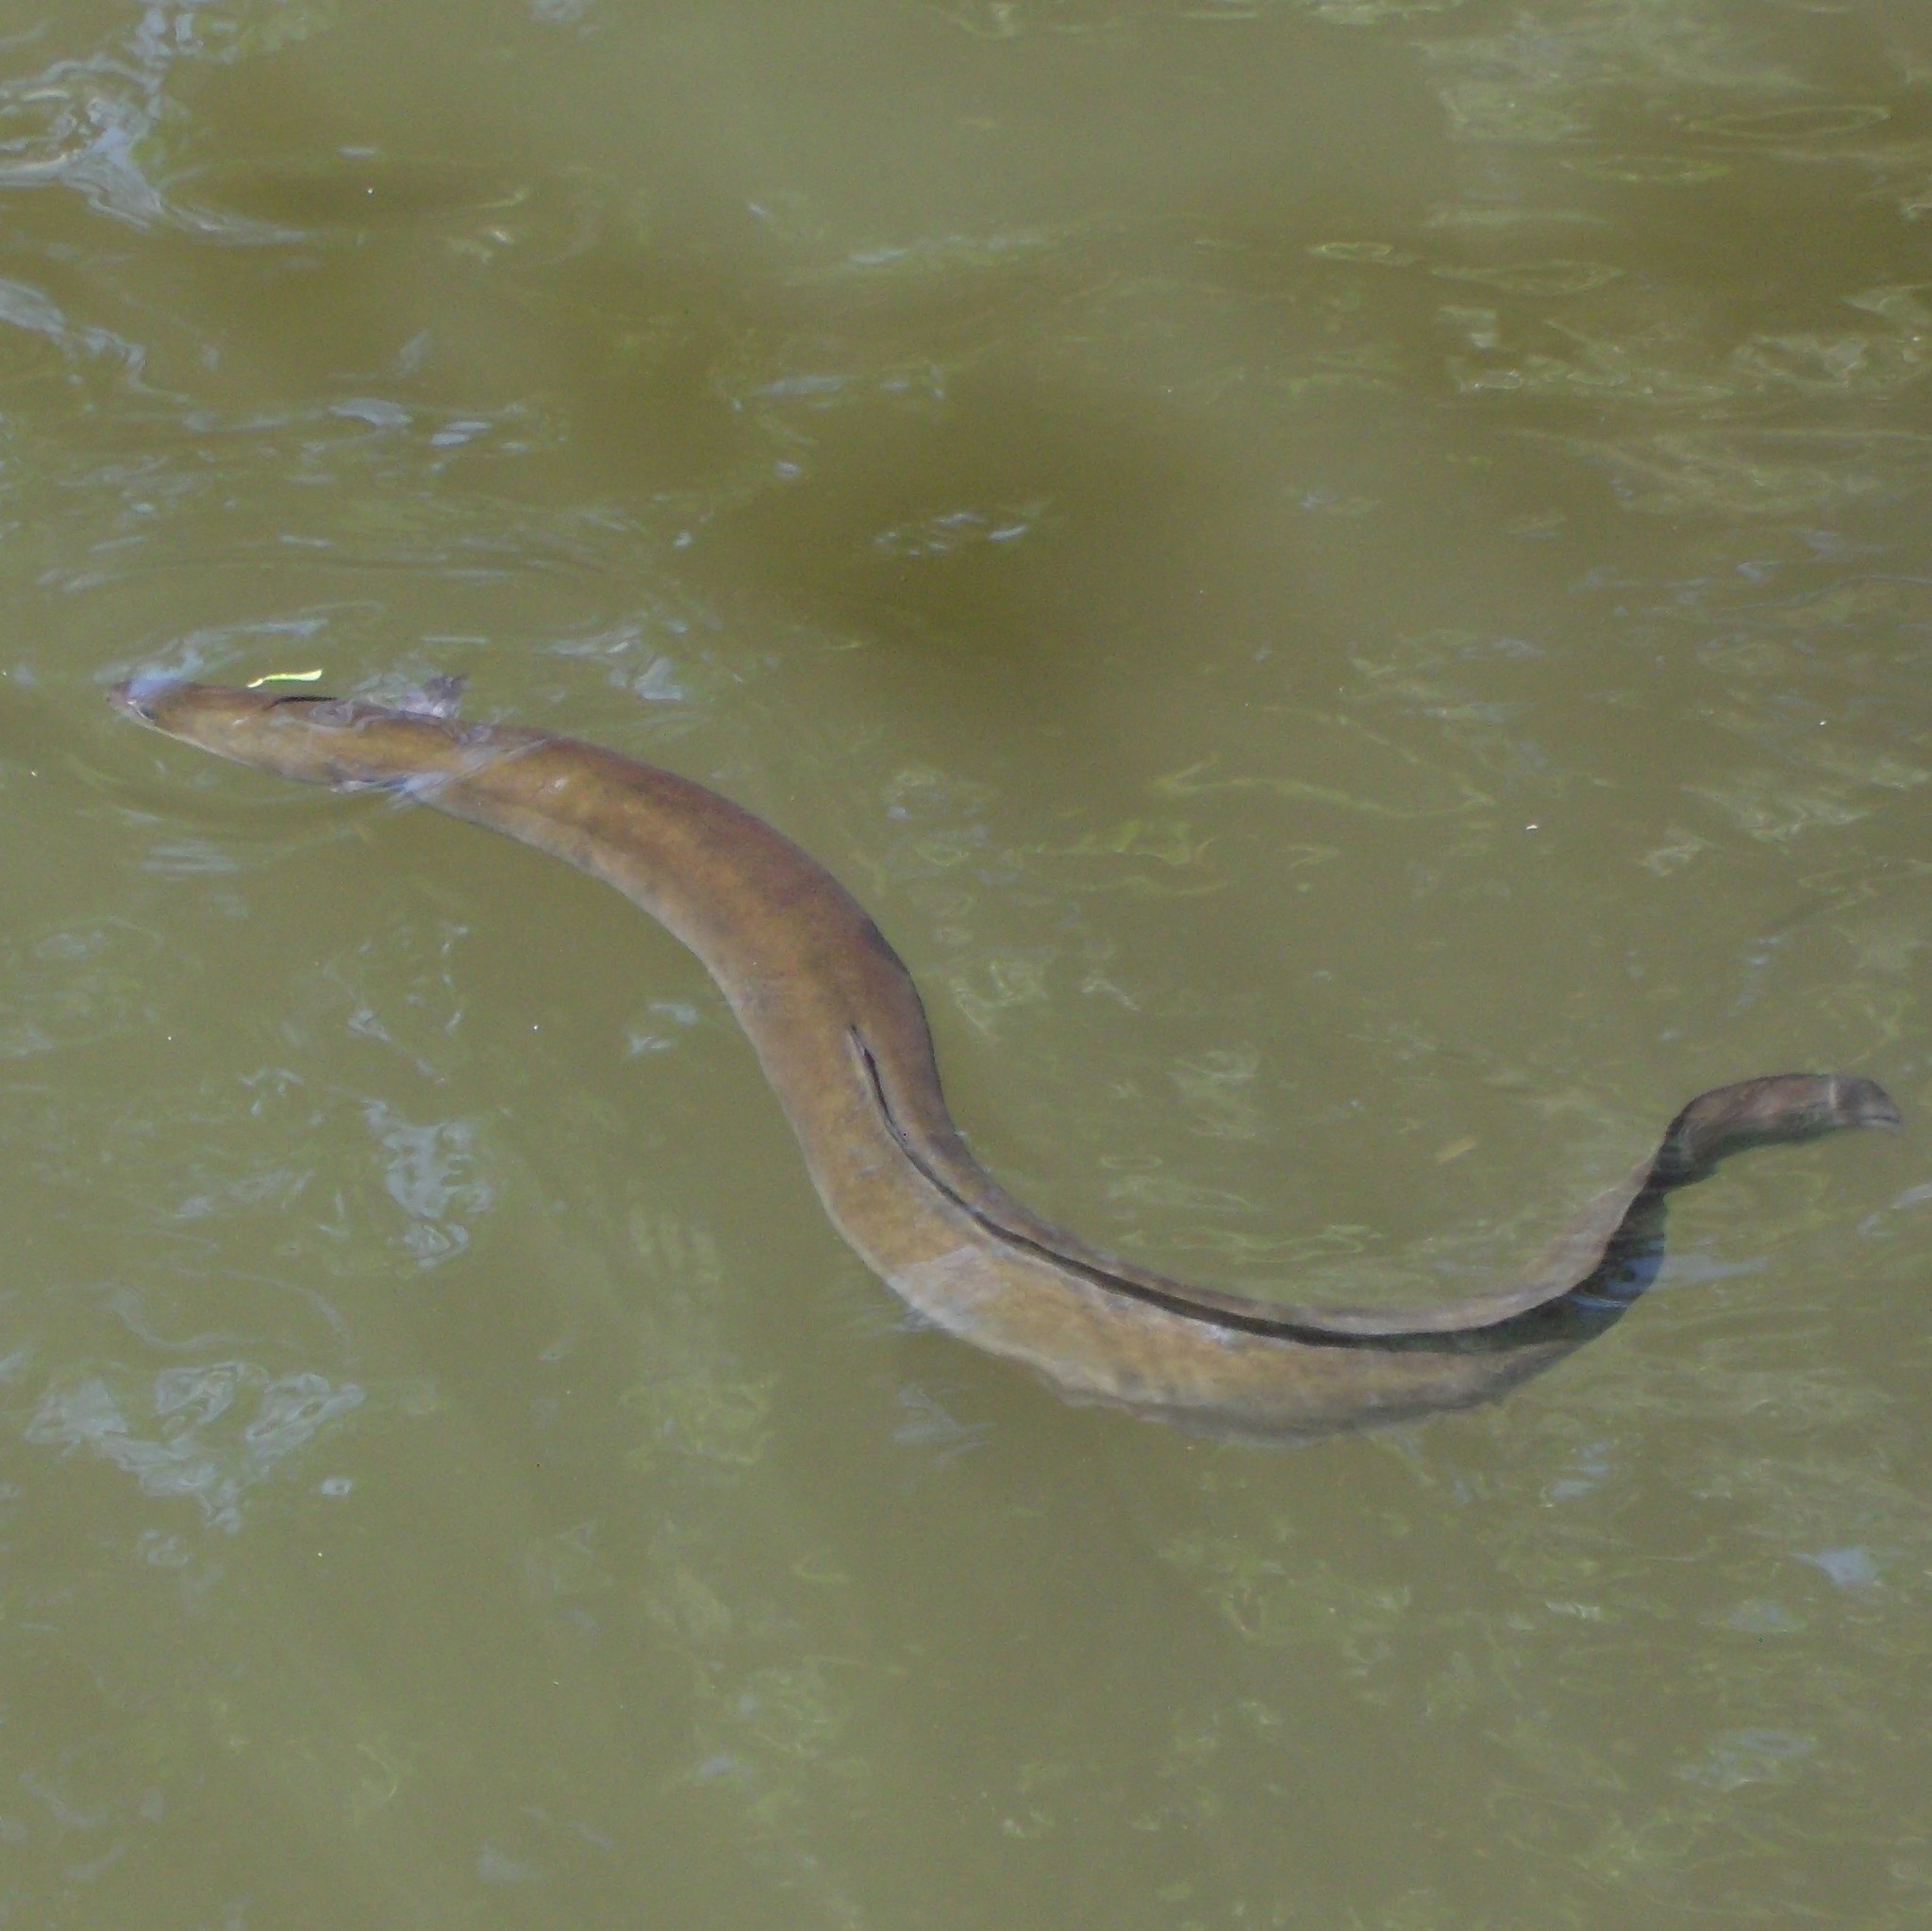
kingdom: Animalia
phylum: Chordata
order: Anguilliformes
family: Anguillidae
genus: Anguilla
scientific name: Anguilla australis
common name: Shortfin eel
